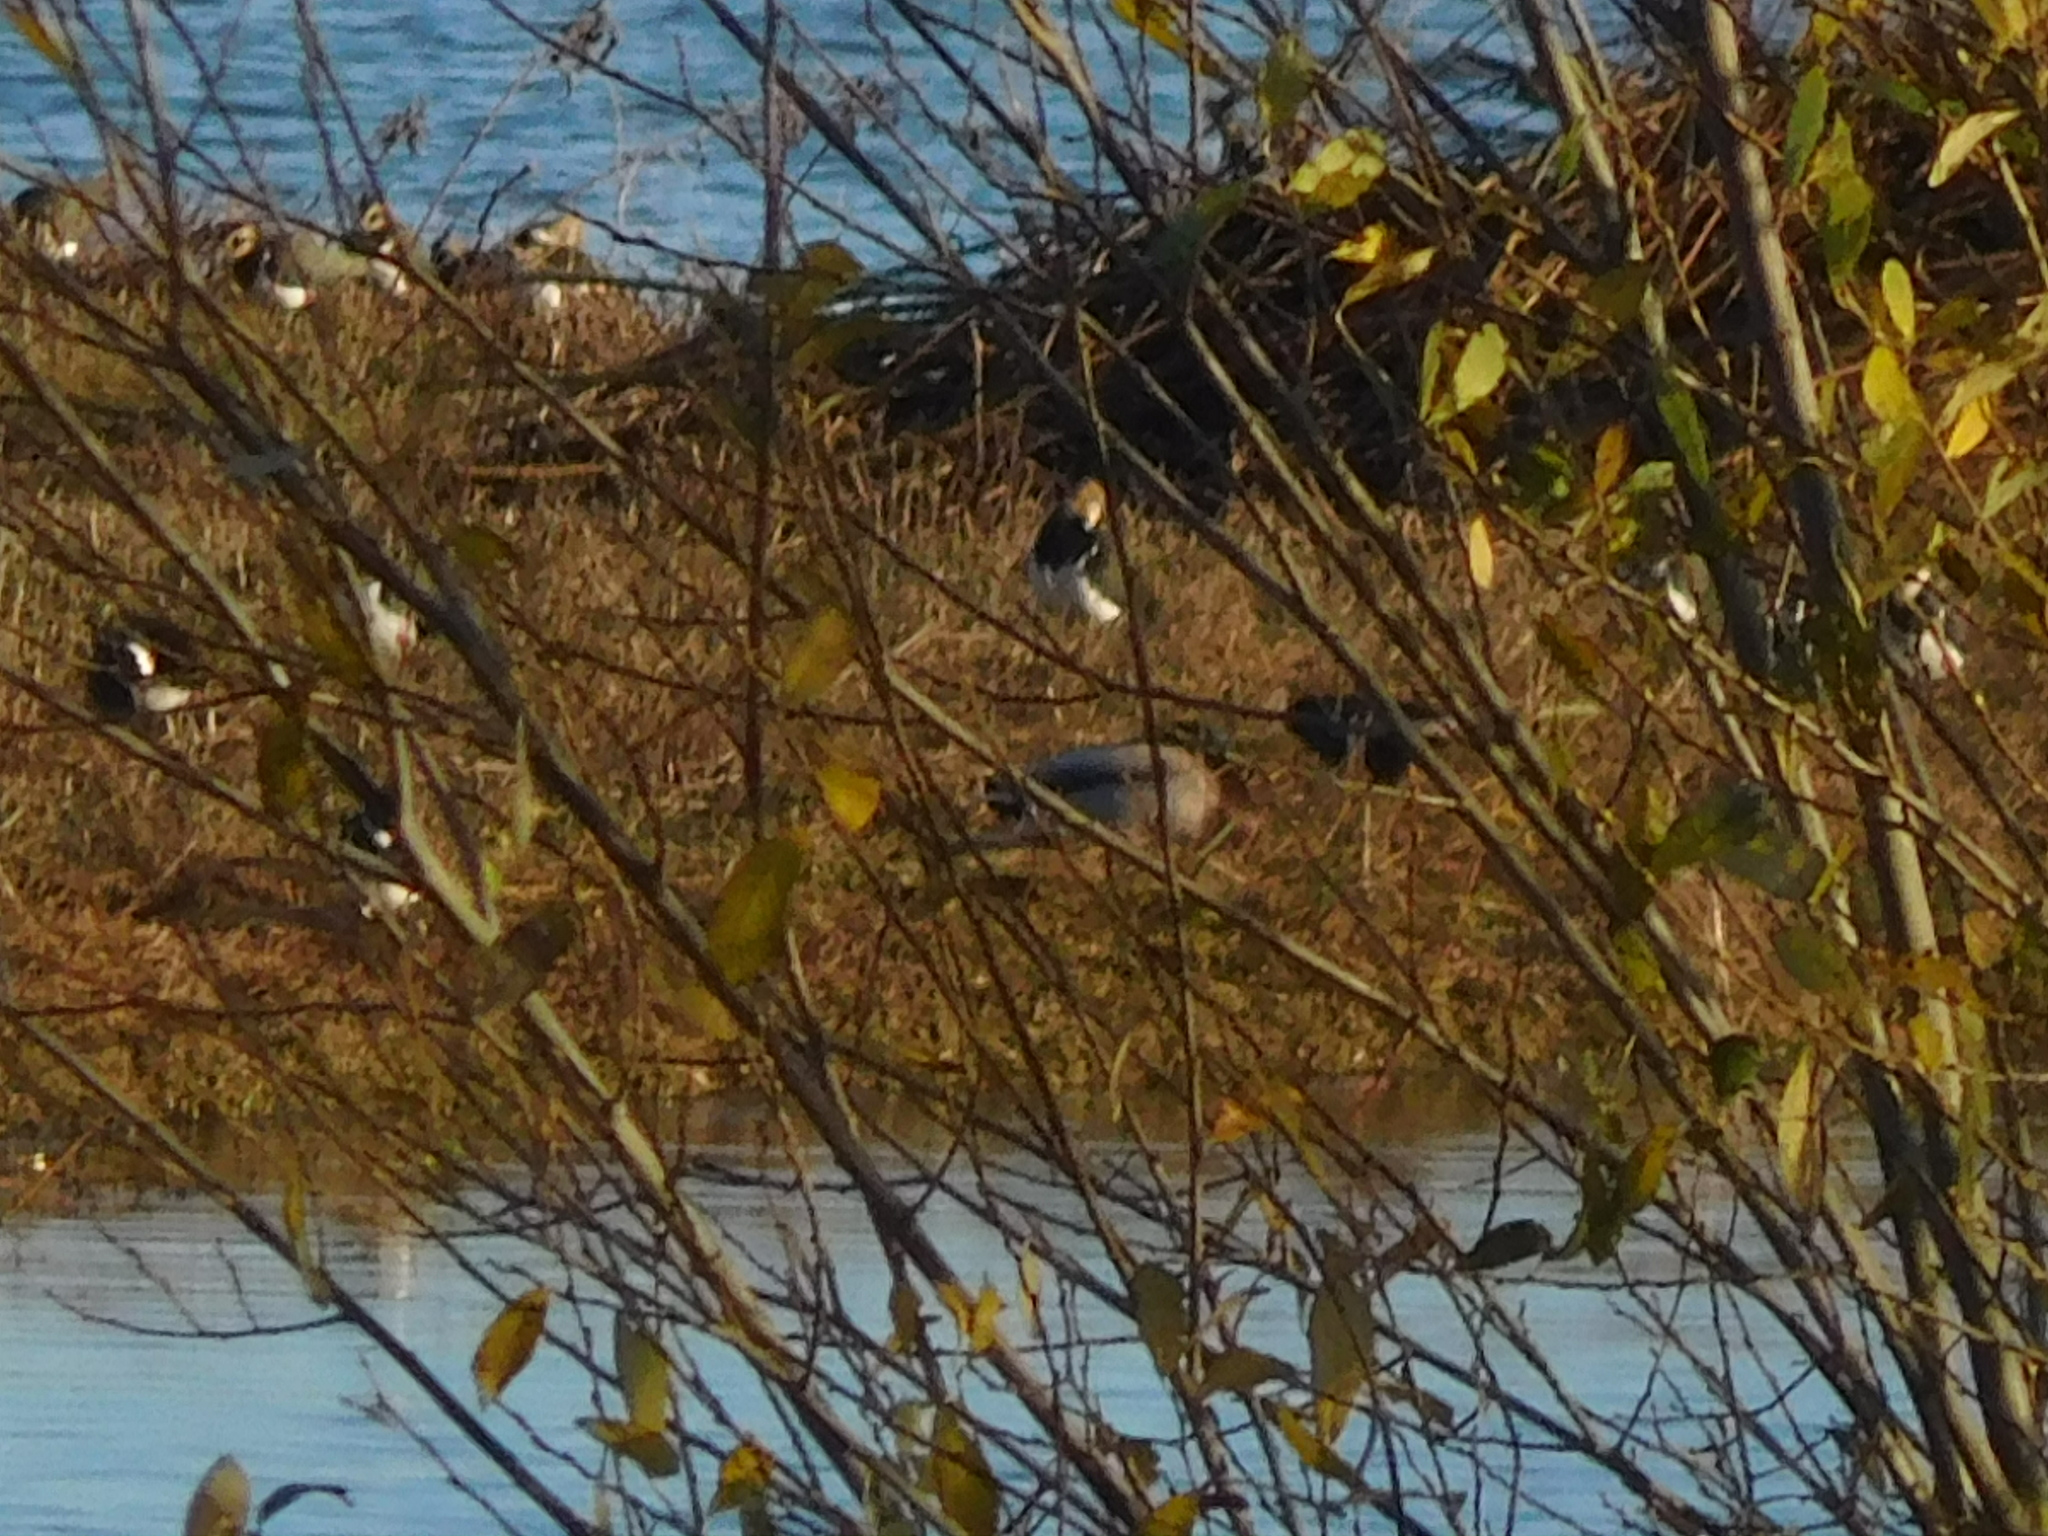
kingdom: Animalia
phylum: Chordata
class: Aves
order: Charadriiformes
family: Charadriidae
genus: Vanellus
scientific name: Vanellus vanellus
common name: Northern lapwing
